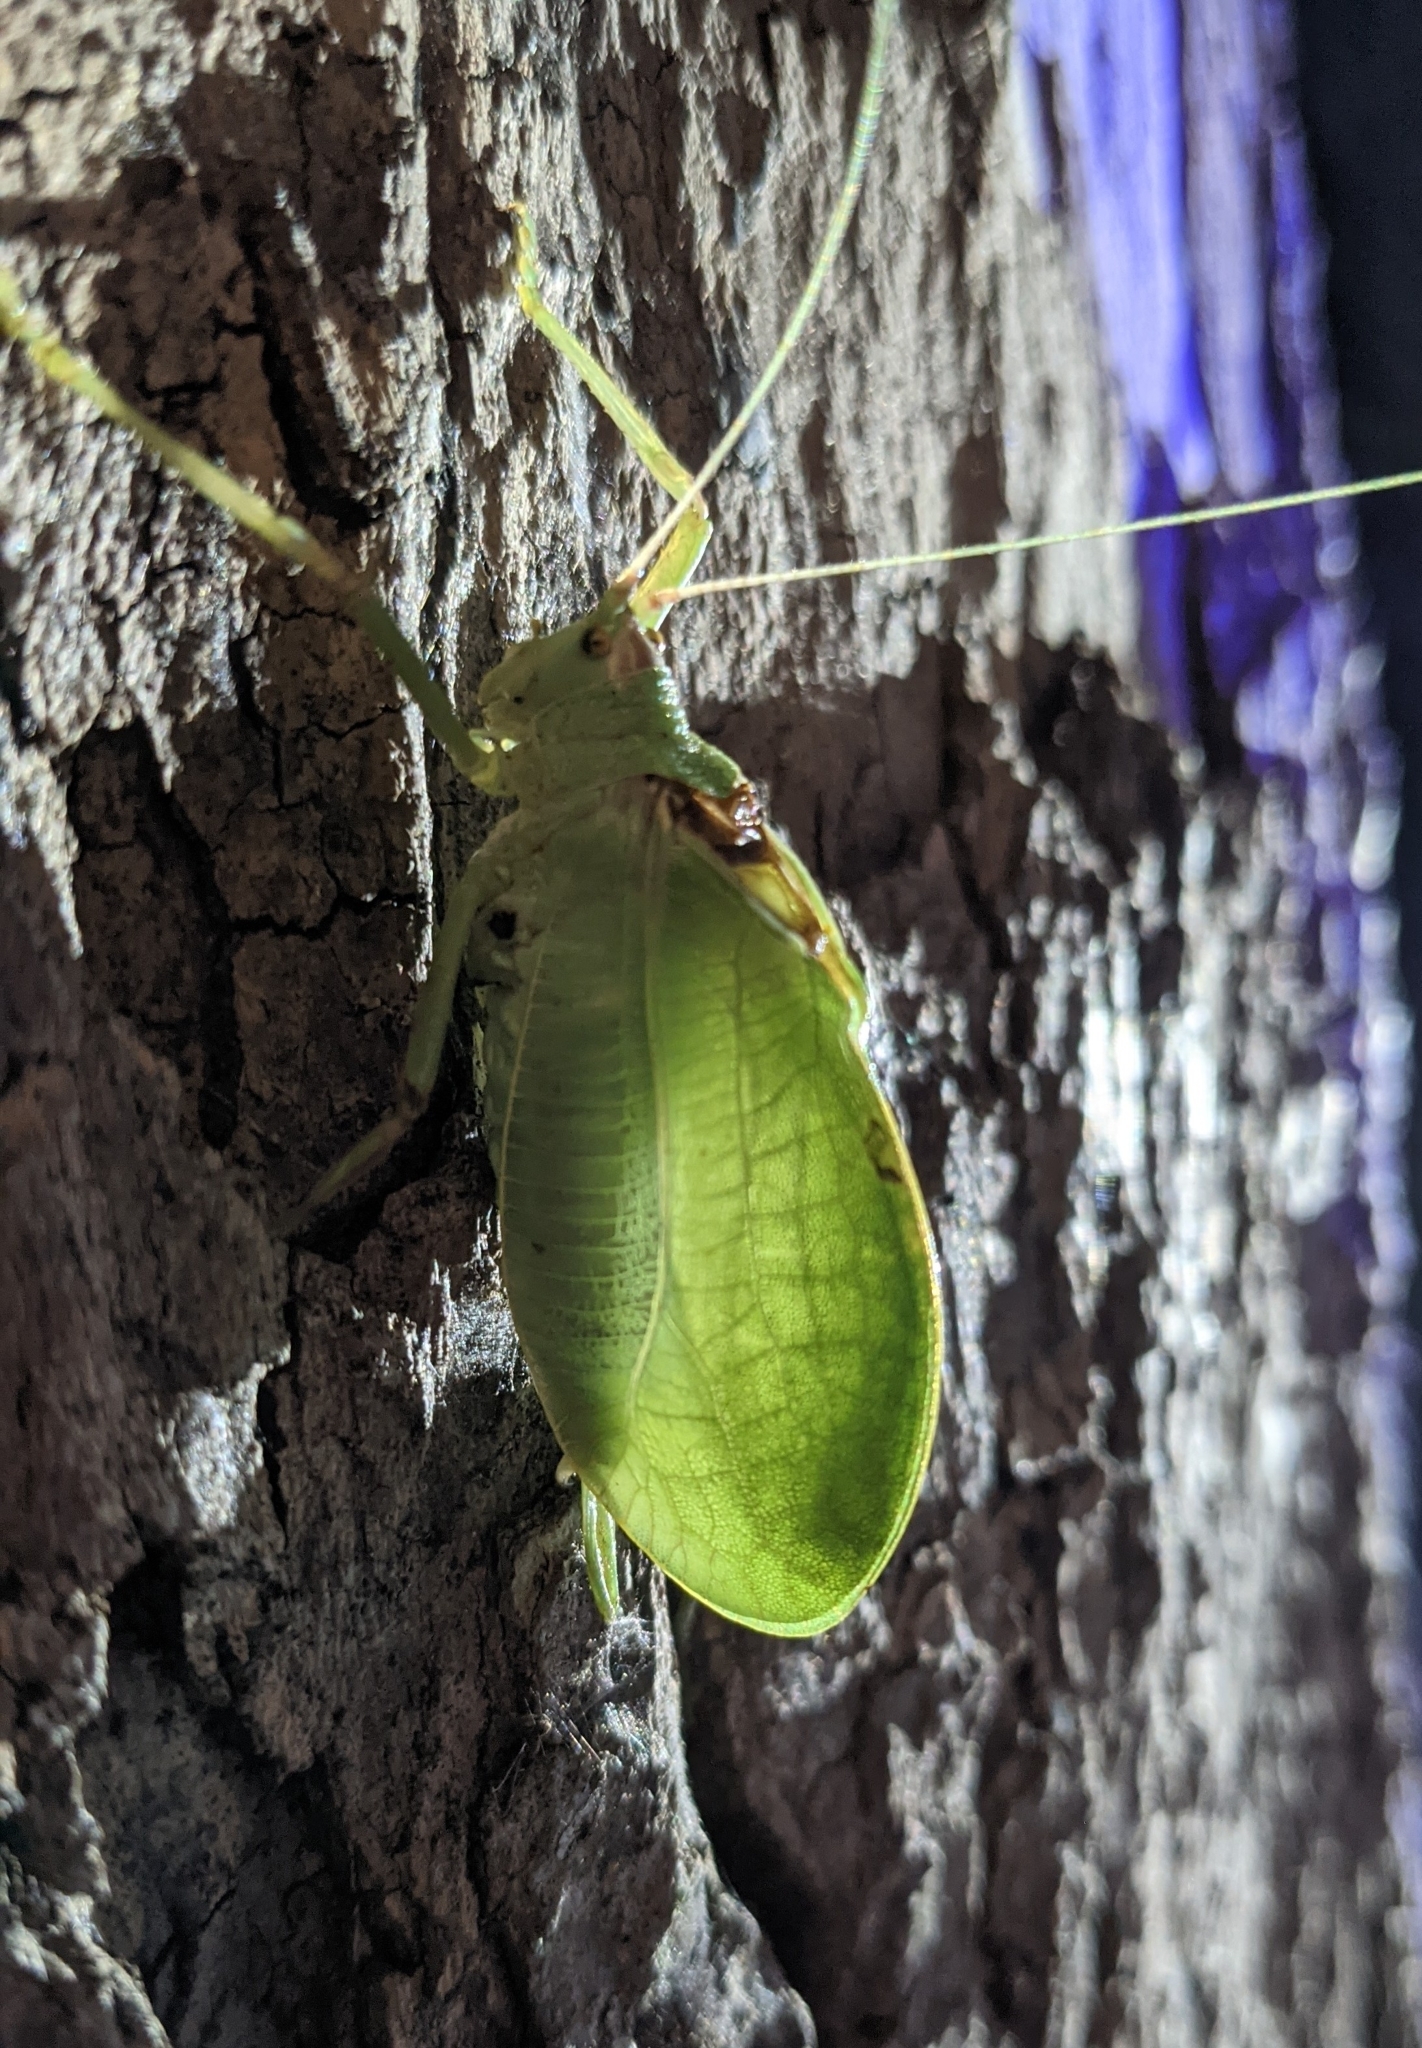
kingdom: Animalia
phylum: Arthropoda
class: Insecta
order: Orthoptera
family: Tettigoniidae
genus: Pterophylla
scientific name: Pterophylla camellifolia
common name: Common true katydid
